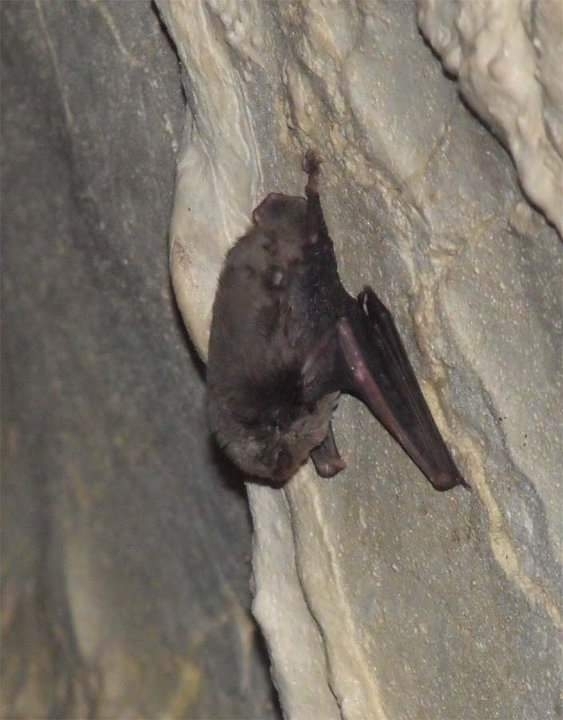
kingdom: Animalia
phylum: Chordata
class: Mammalia
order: Chiroptera
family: Miniopteridae
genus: Miniopterus
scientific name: Miniopterus schreibersii
